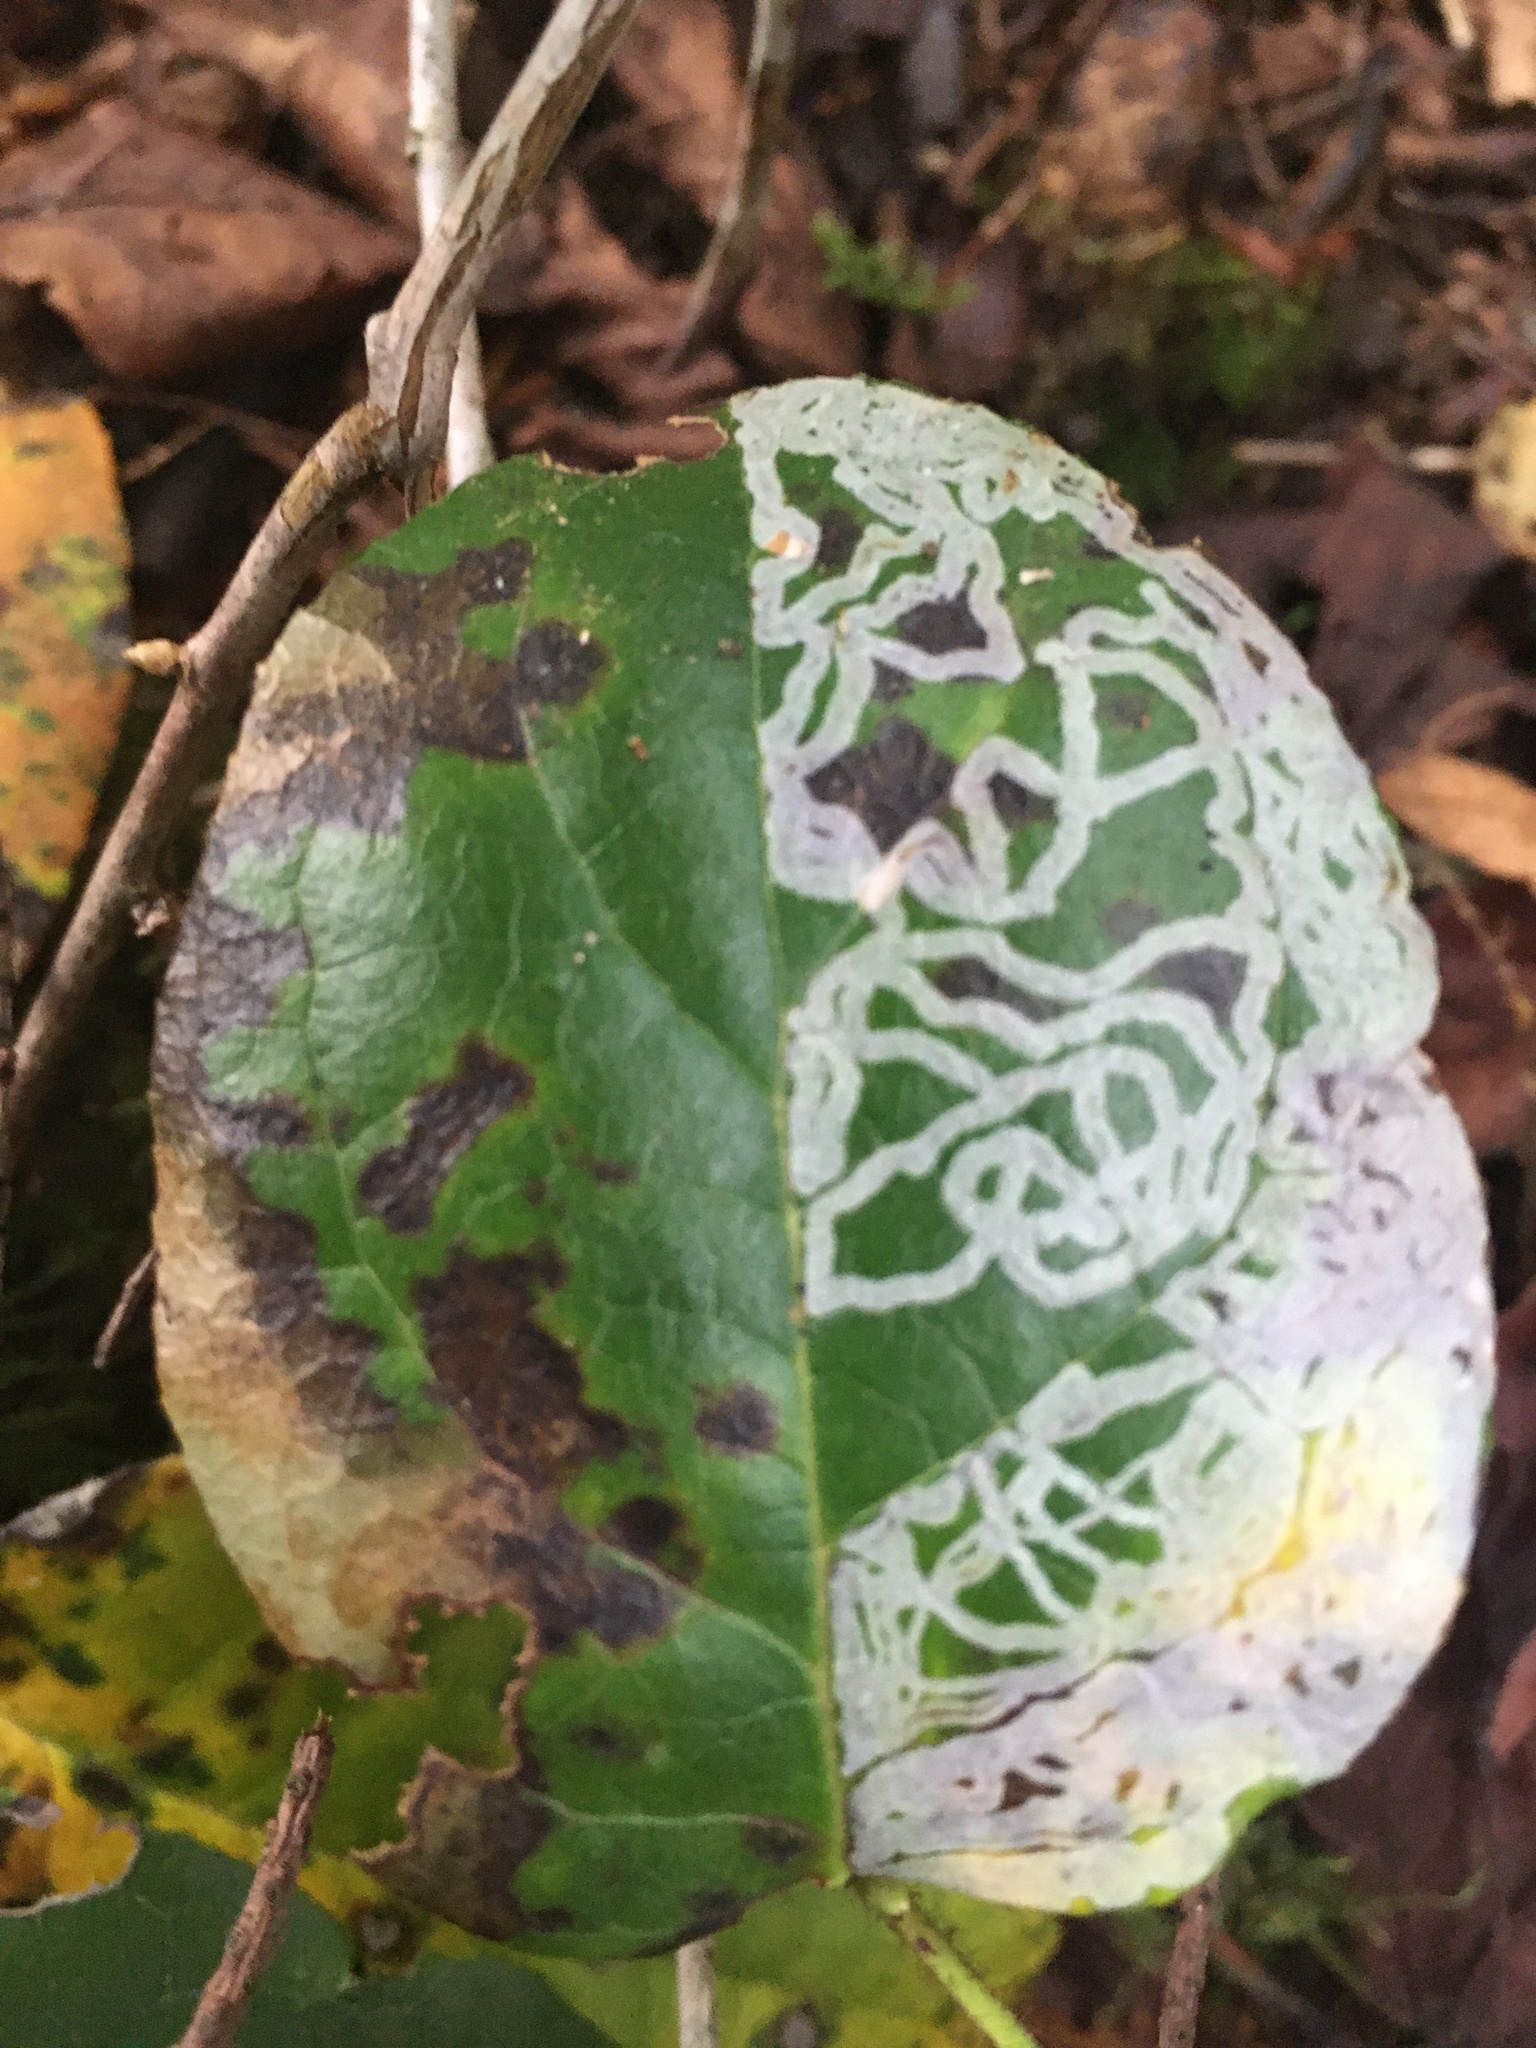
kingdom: Animalia
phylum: Arthropoda
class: Insecta
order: Lepidoptera
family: Gracillariidae
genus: Marmara
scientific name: Marmara arbutiella
